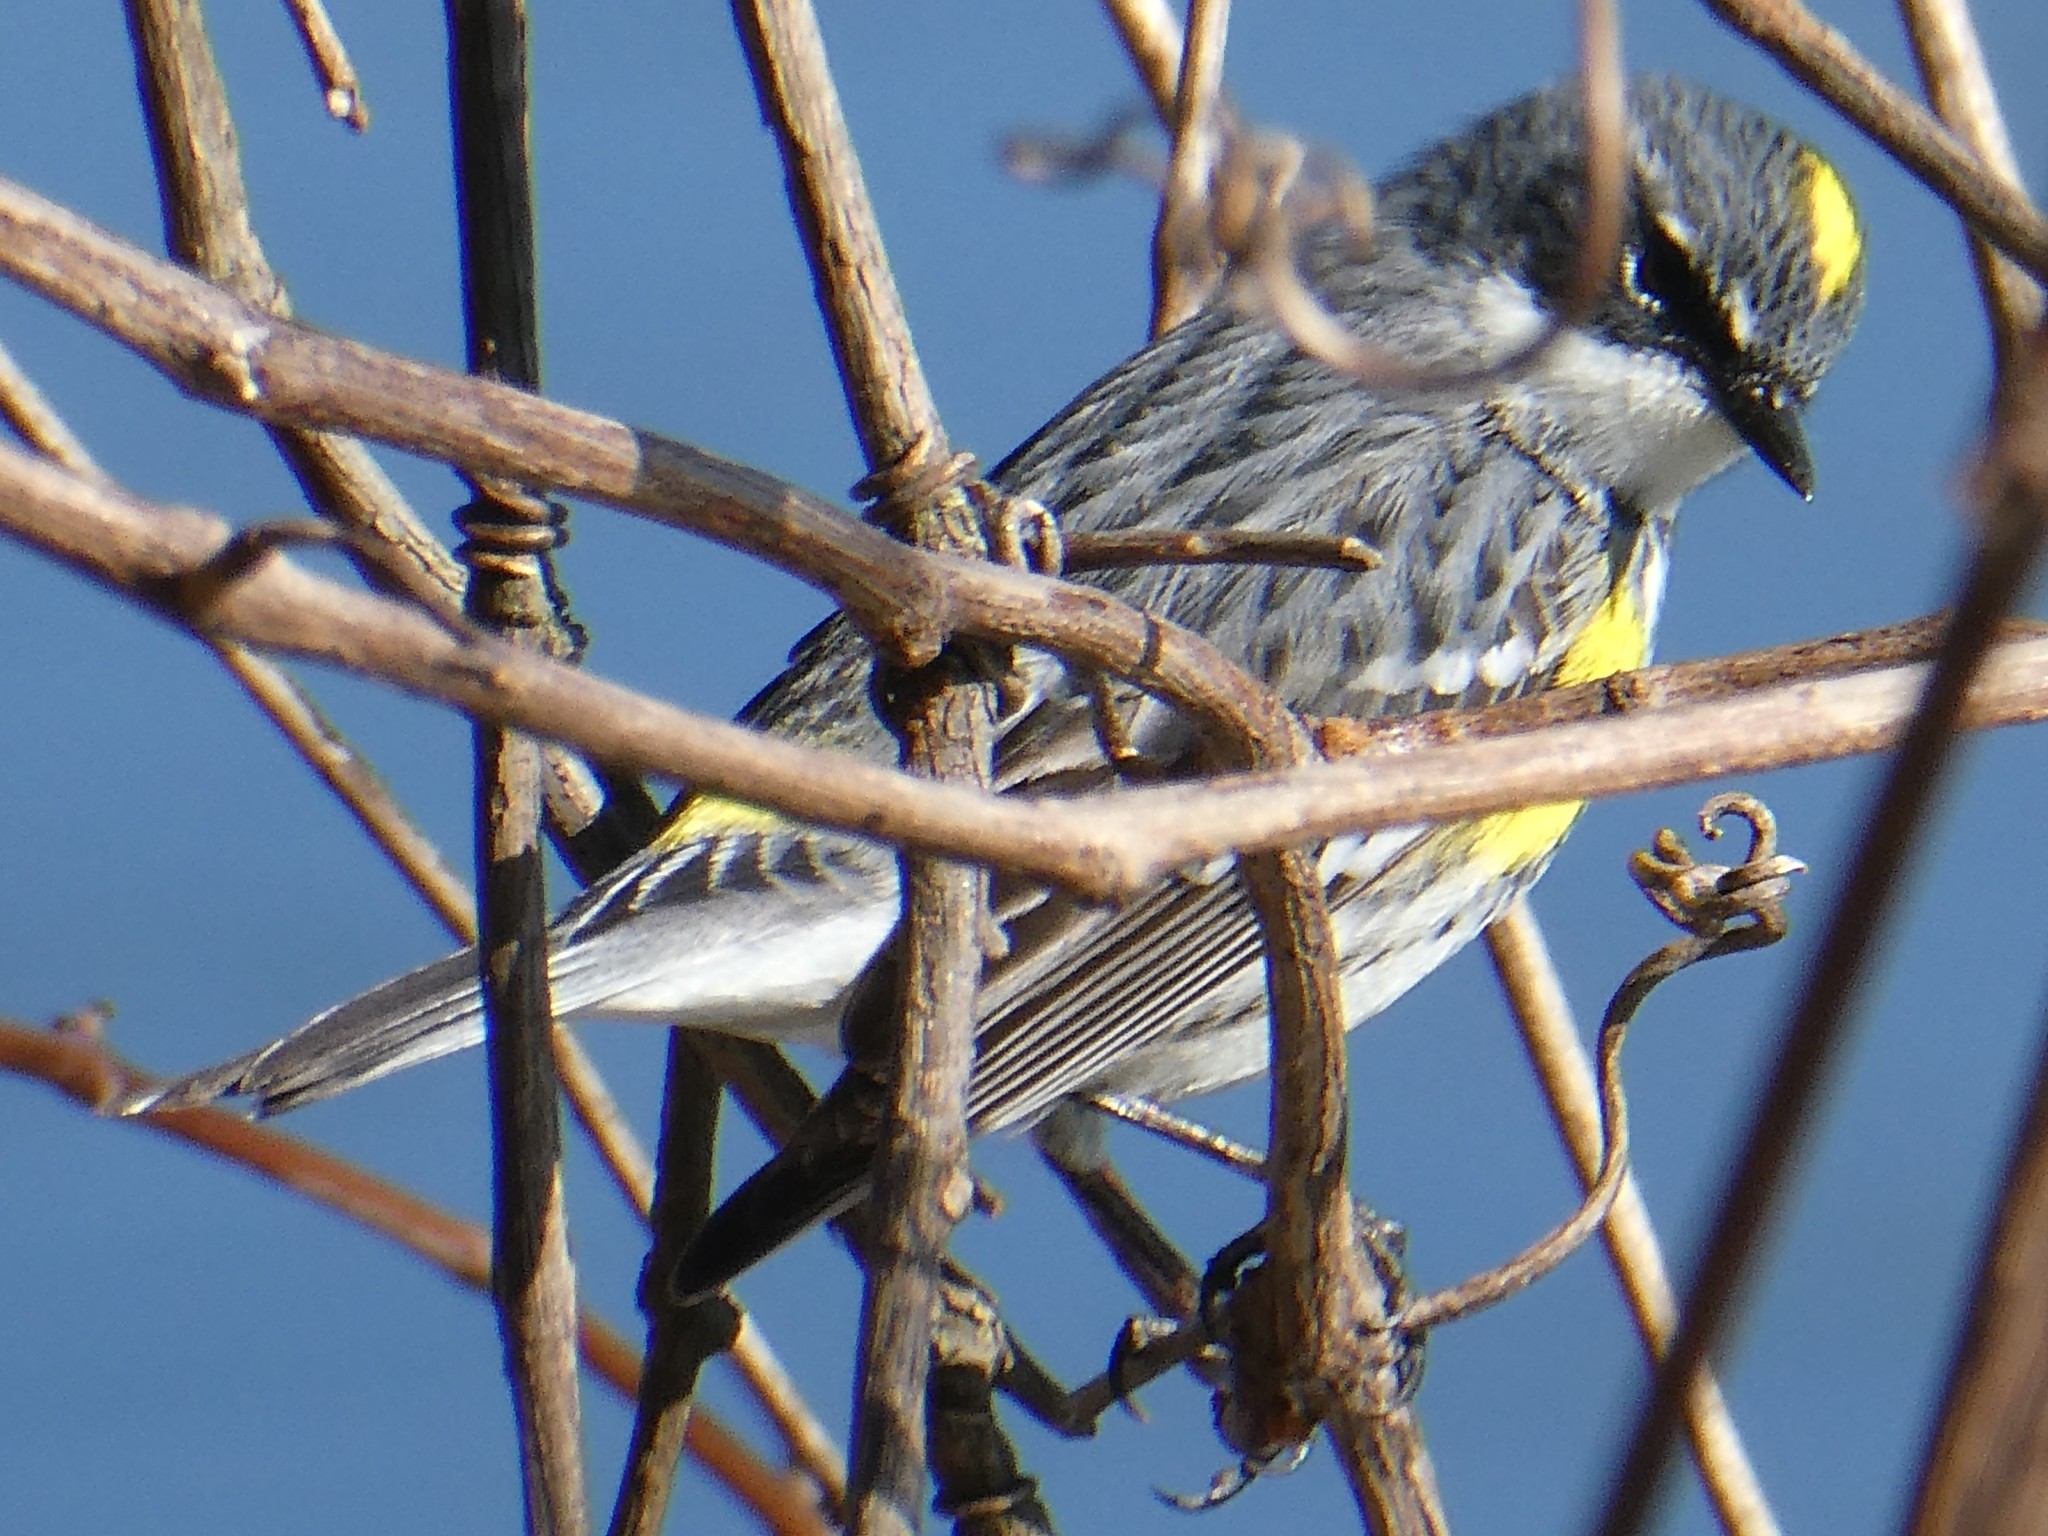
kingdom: Animalia
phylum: Chordata
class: Aves
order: Passeriformes
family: Parulidae
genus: Setophaga
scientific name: Setophaga coronata
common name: Myrtle warbler
